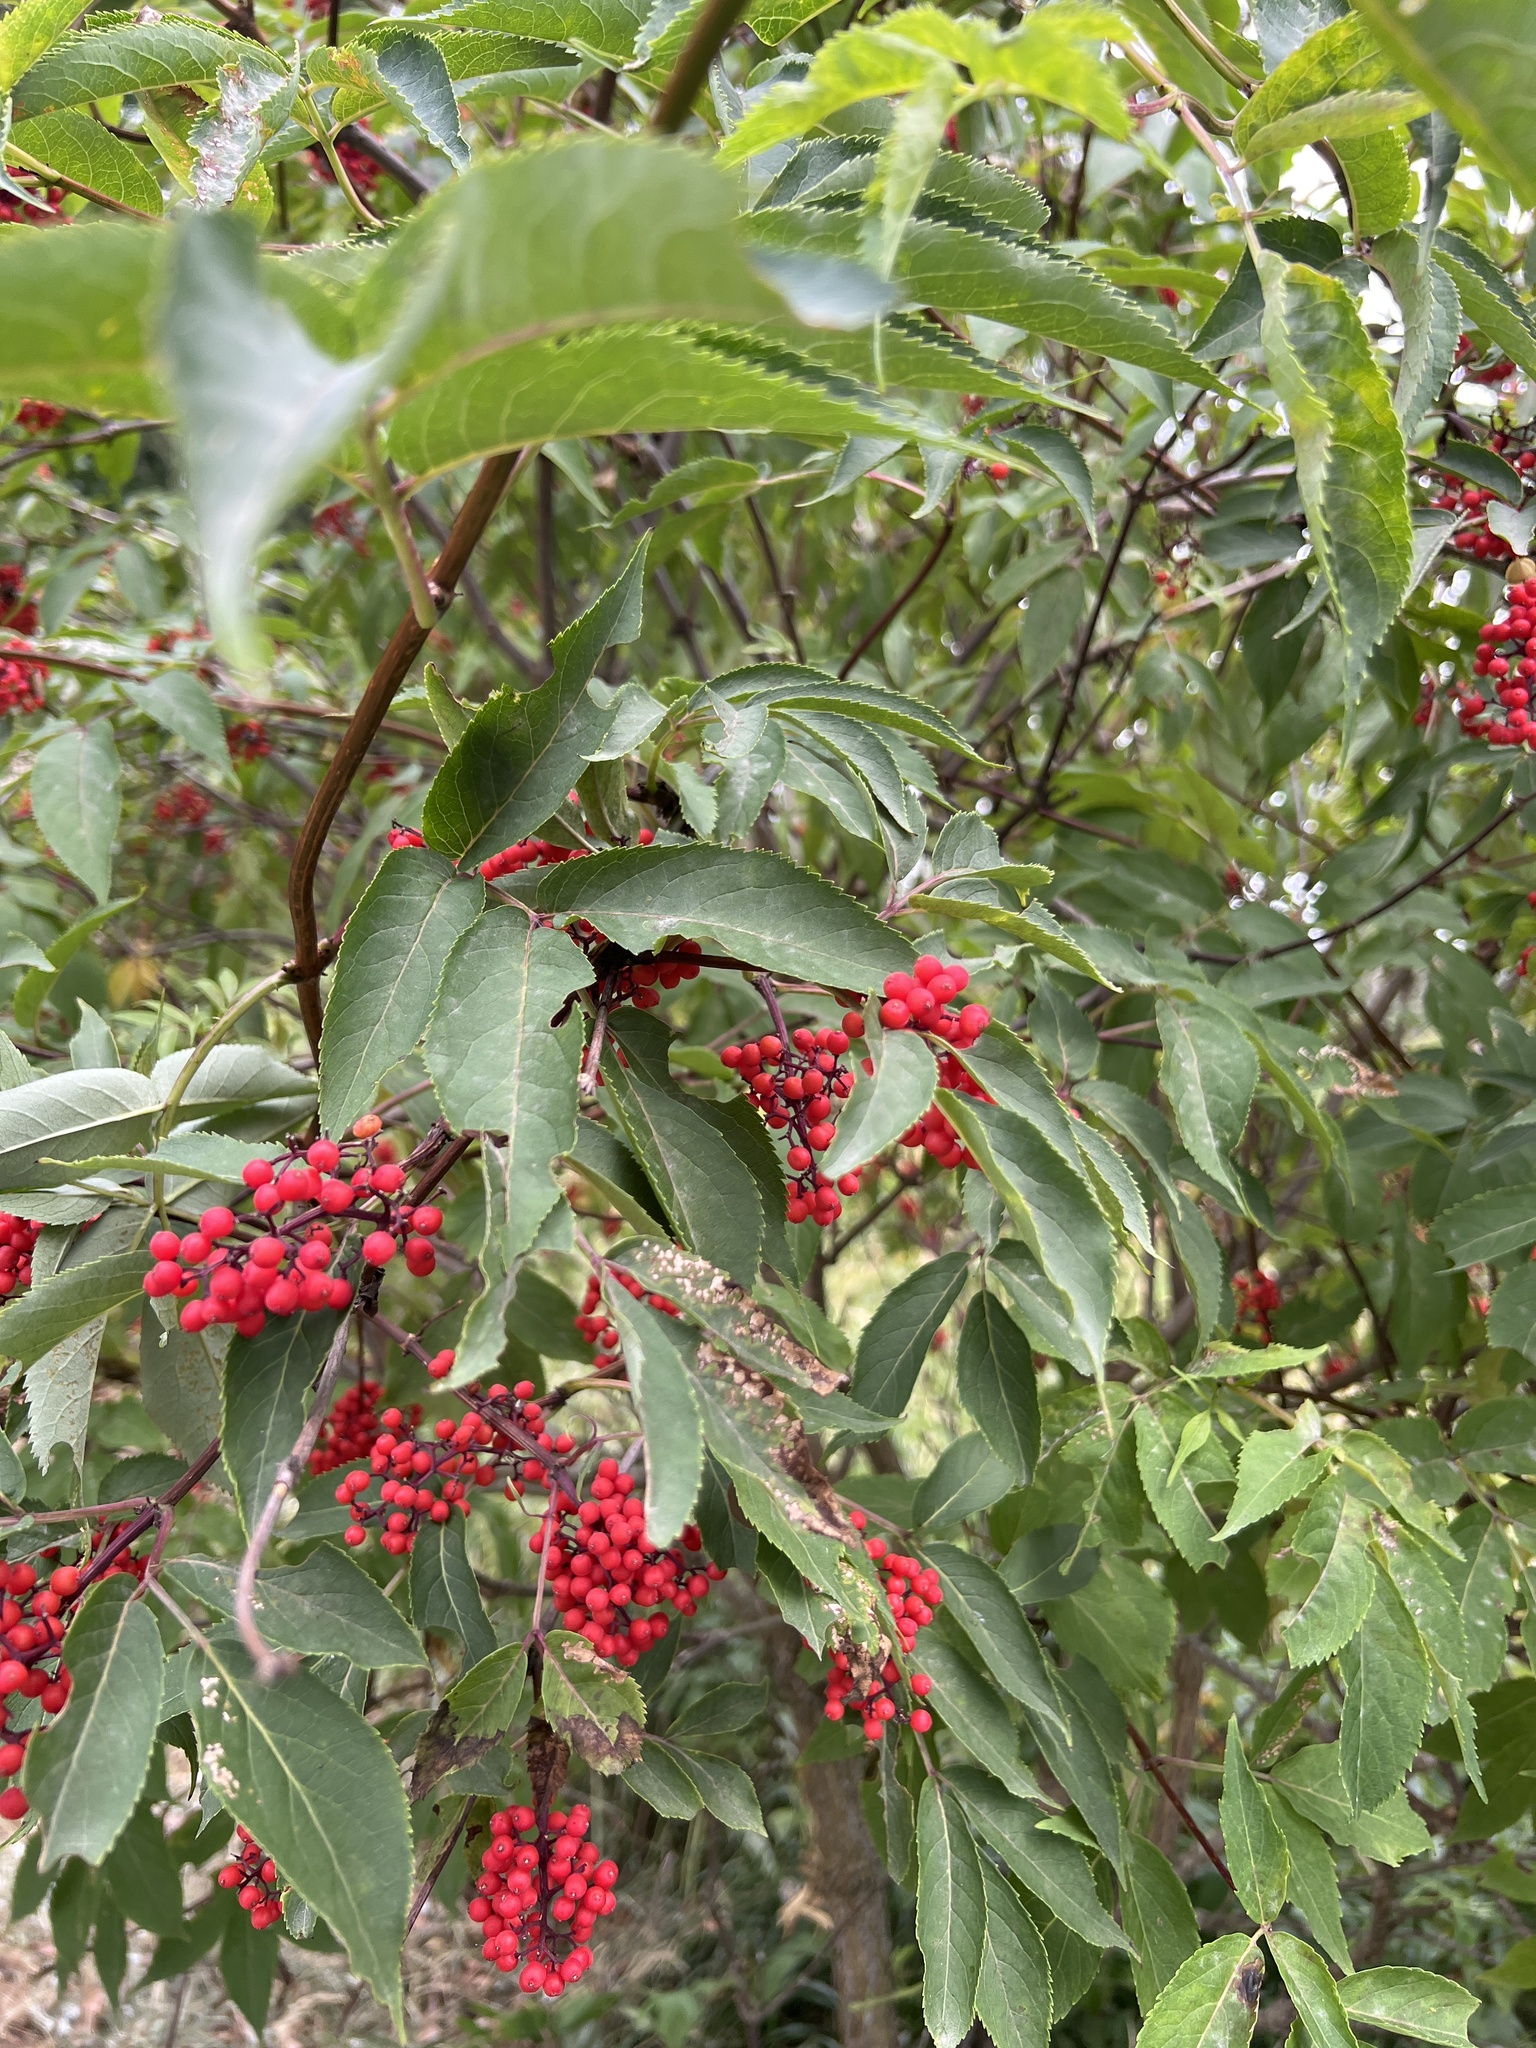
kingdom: Plantae
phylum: Tracheophyta
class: Magnoliopsida
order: Dipsacales
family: Viburnaceae
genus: Sambucus
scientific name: Sambucus racemosa
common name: Red-berried elder
